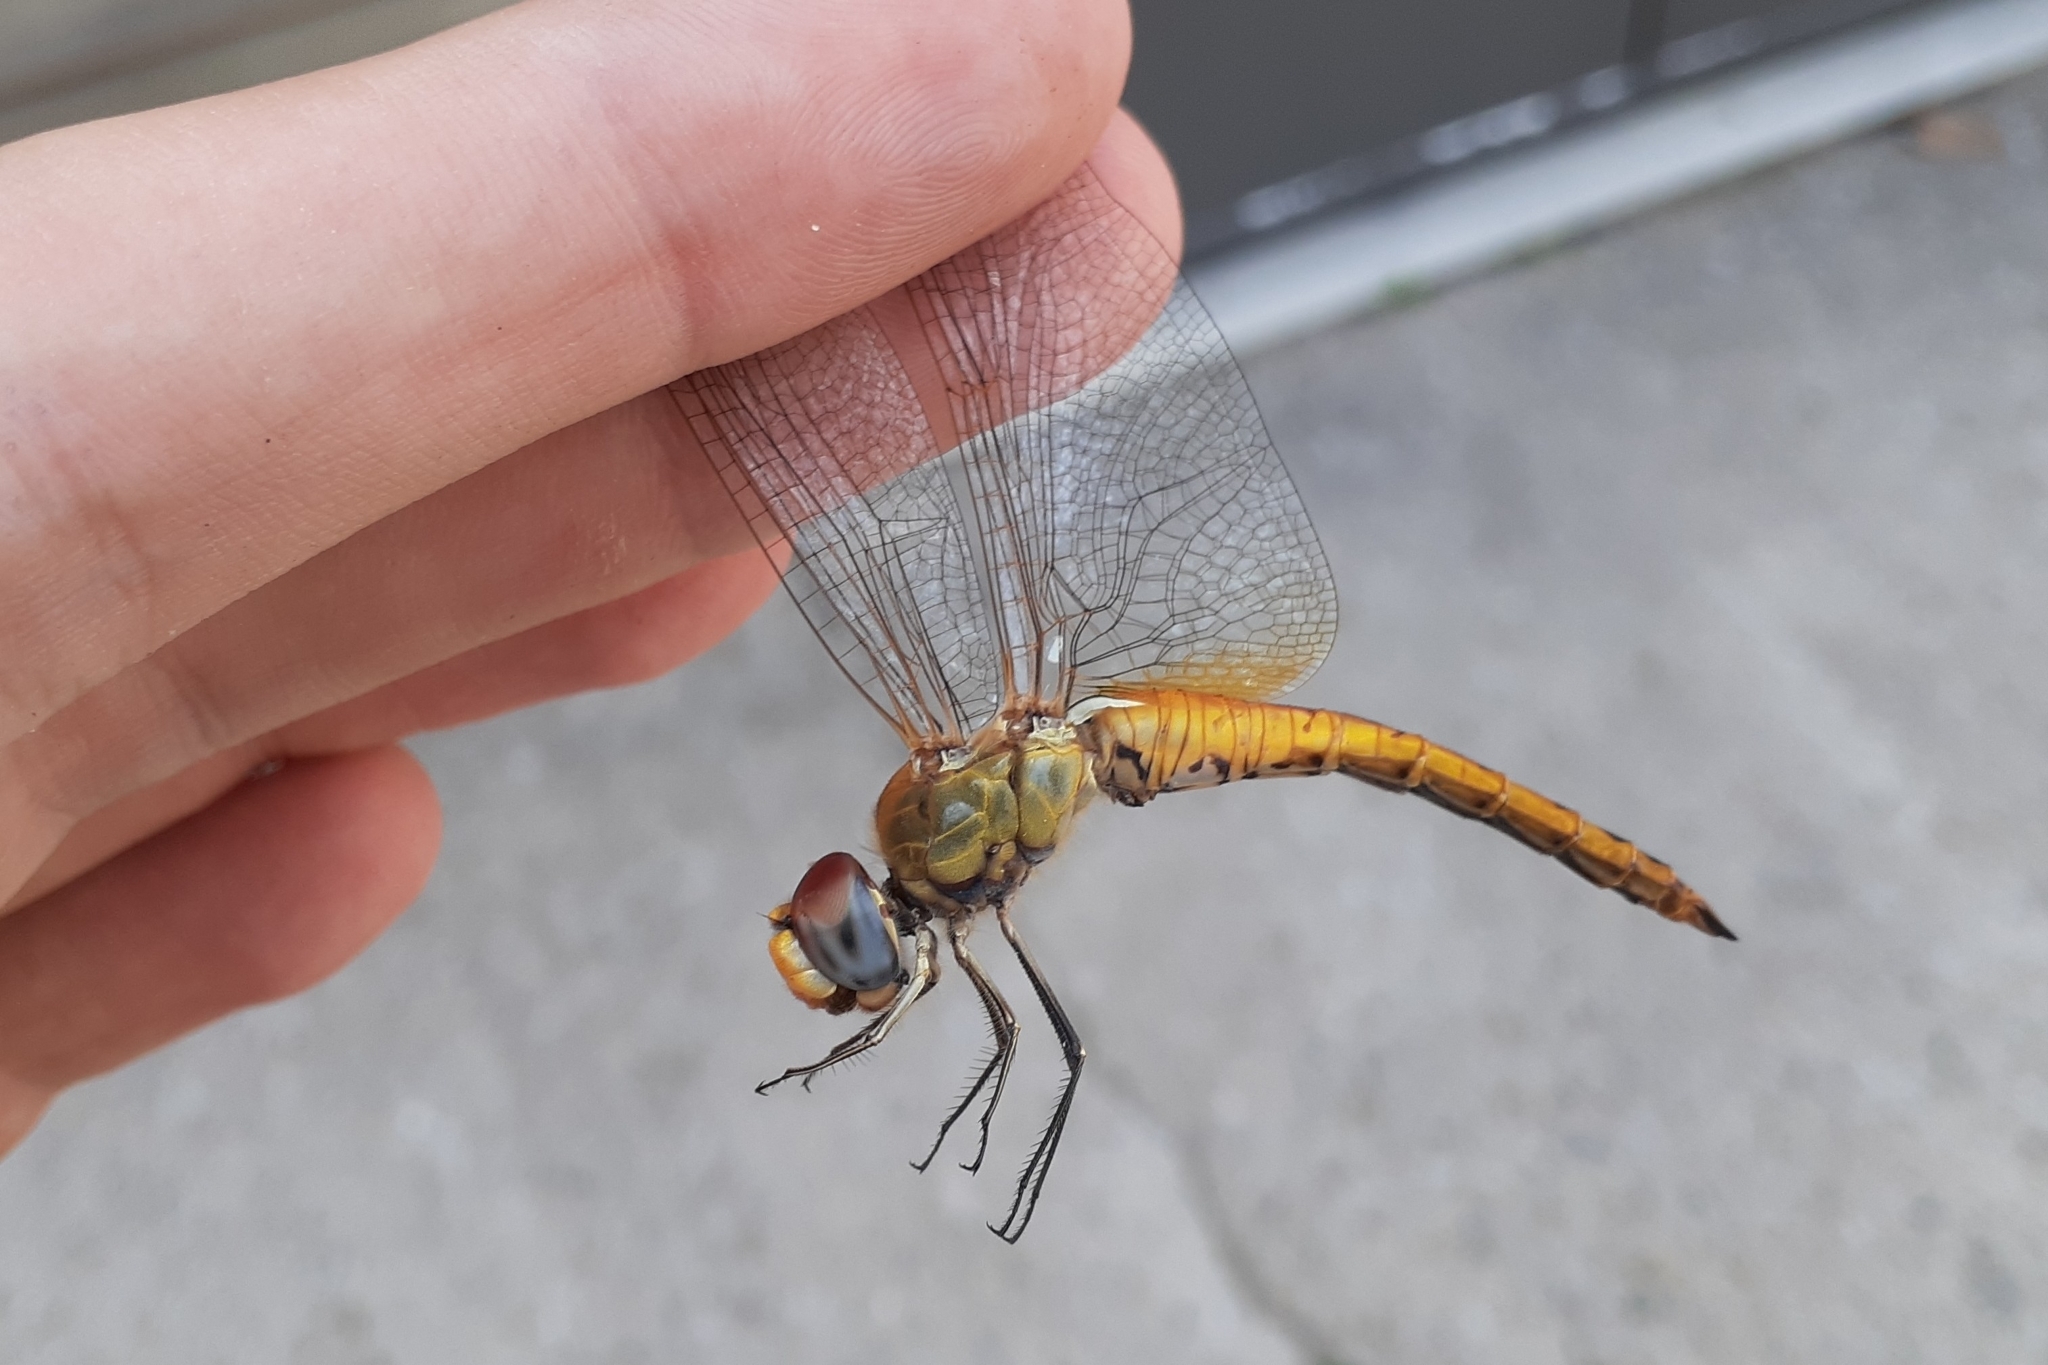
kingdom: Animalia
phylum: Arthropoda
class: Insecta
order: Odonata
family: Libellulidae
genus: Pantala
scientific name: Pantala flavescens
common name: Wandering glider
